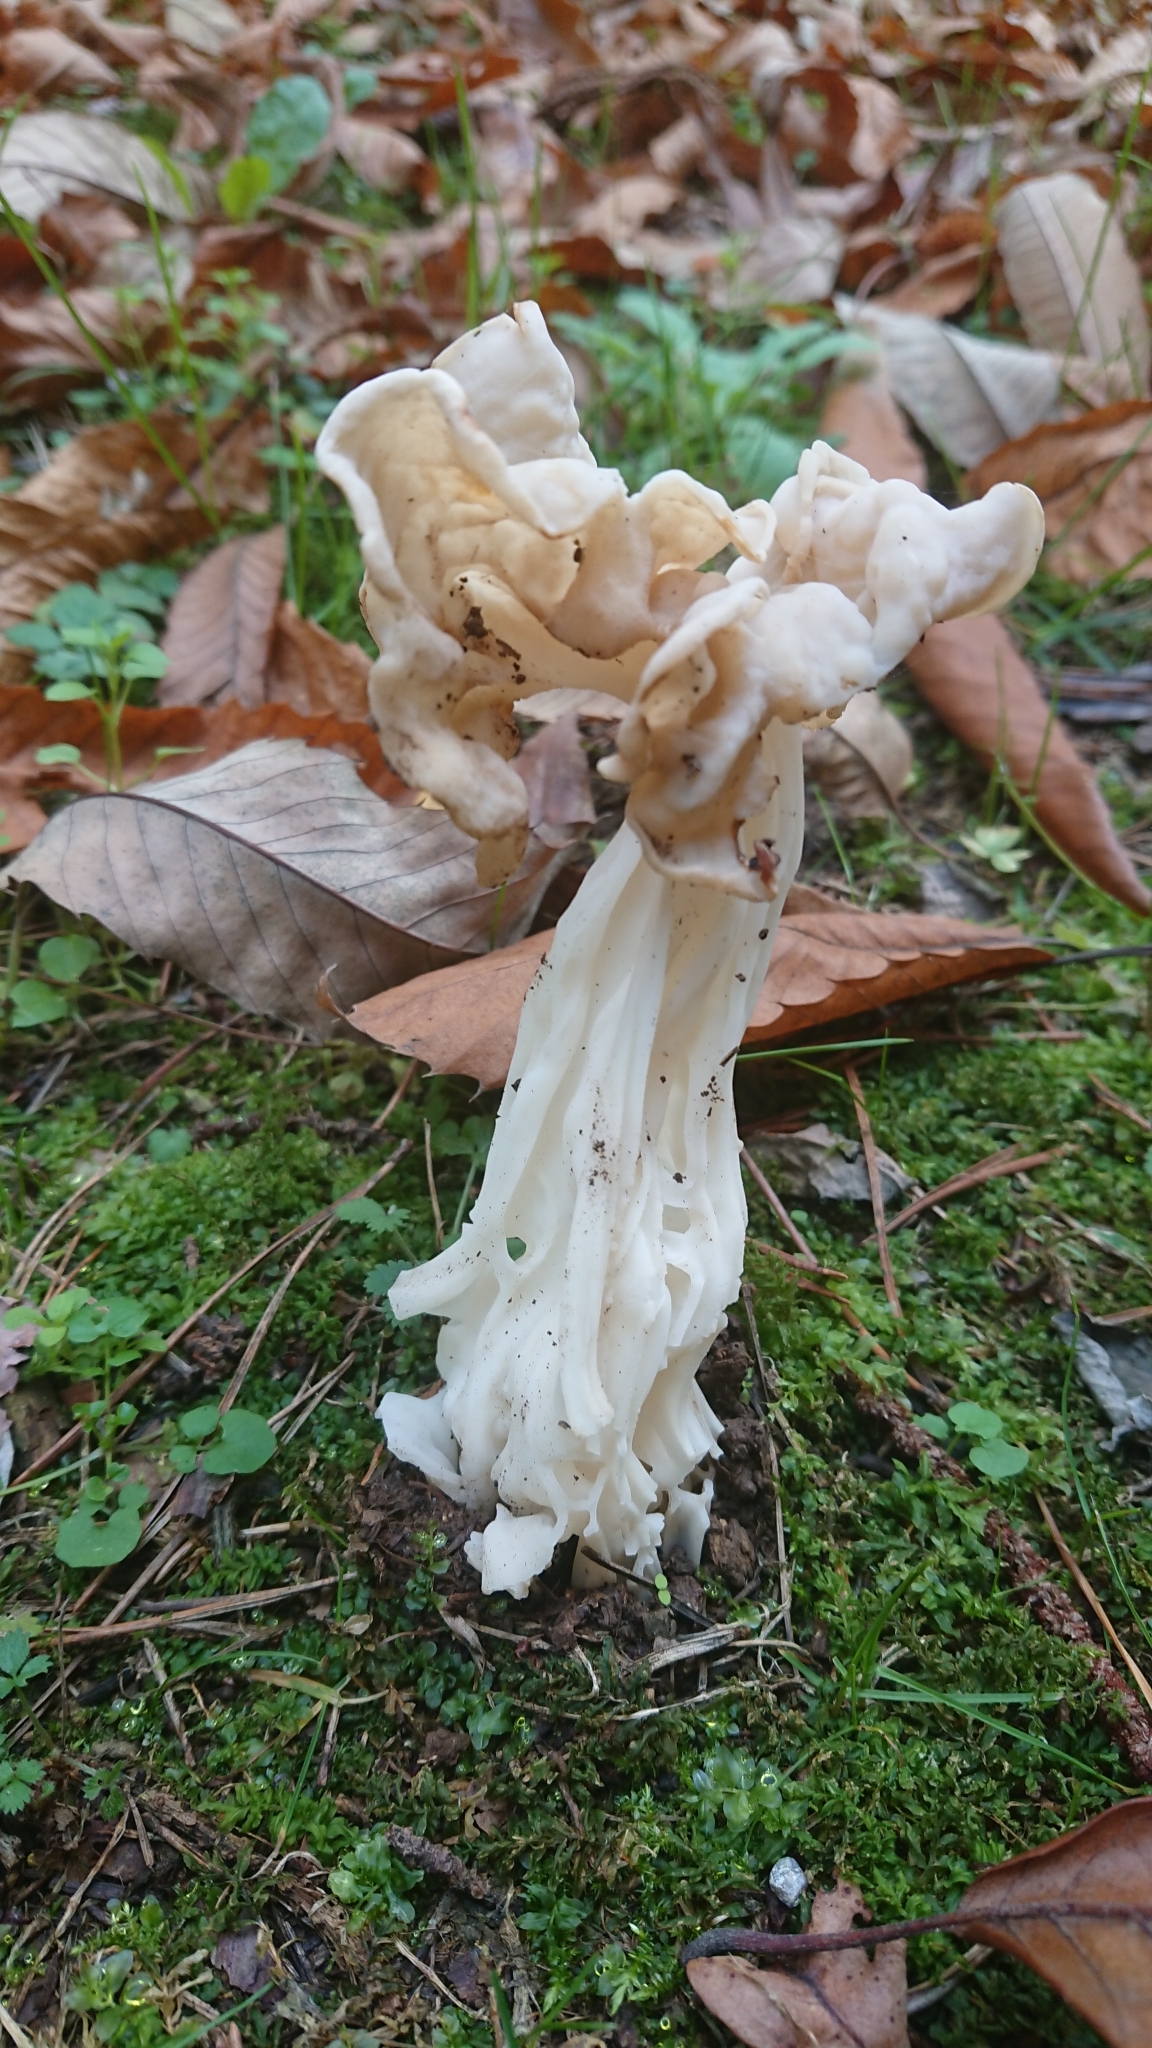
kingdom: Fungi
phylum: Ascomycota
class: Pezizomycetes
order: Pezizales
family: Helvellaceae
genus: Helvella
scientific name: Helvella crispa
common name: White saddle
